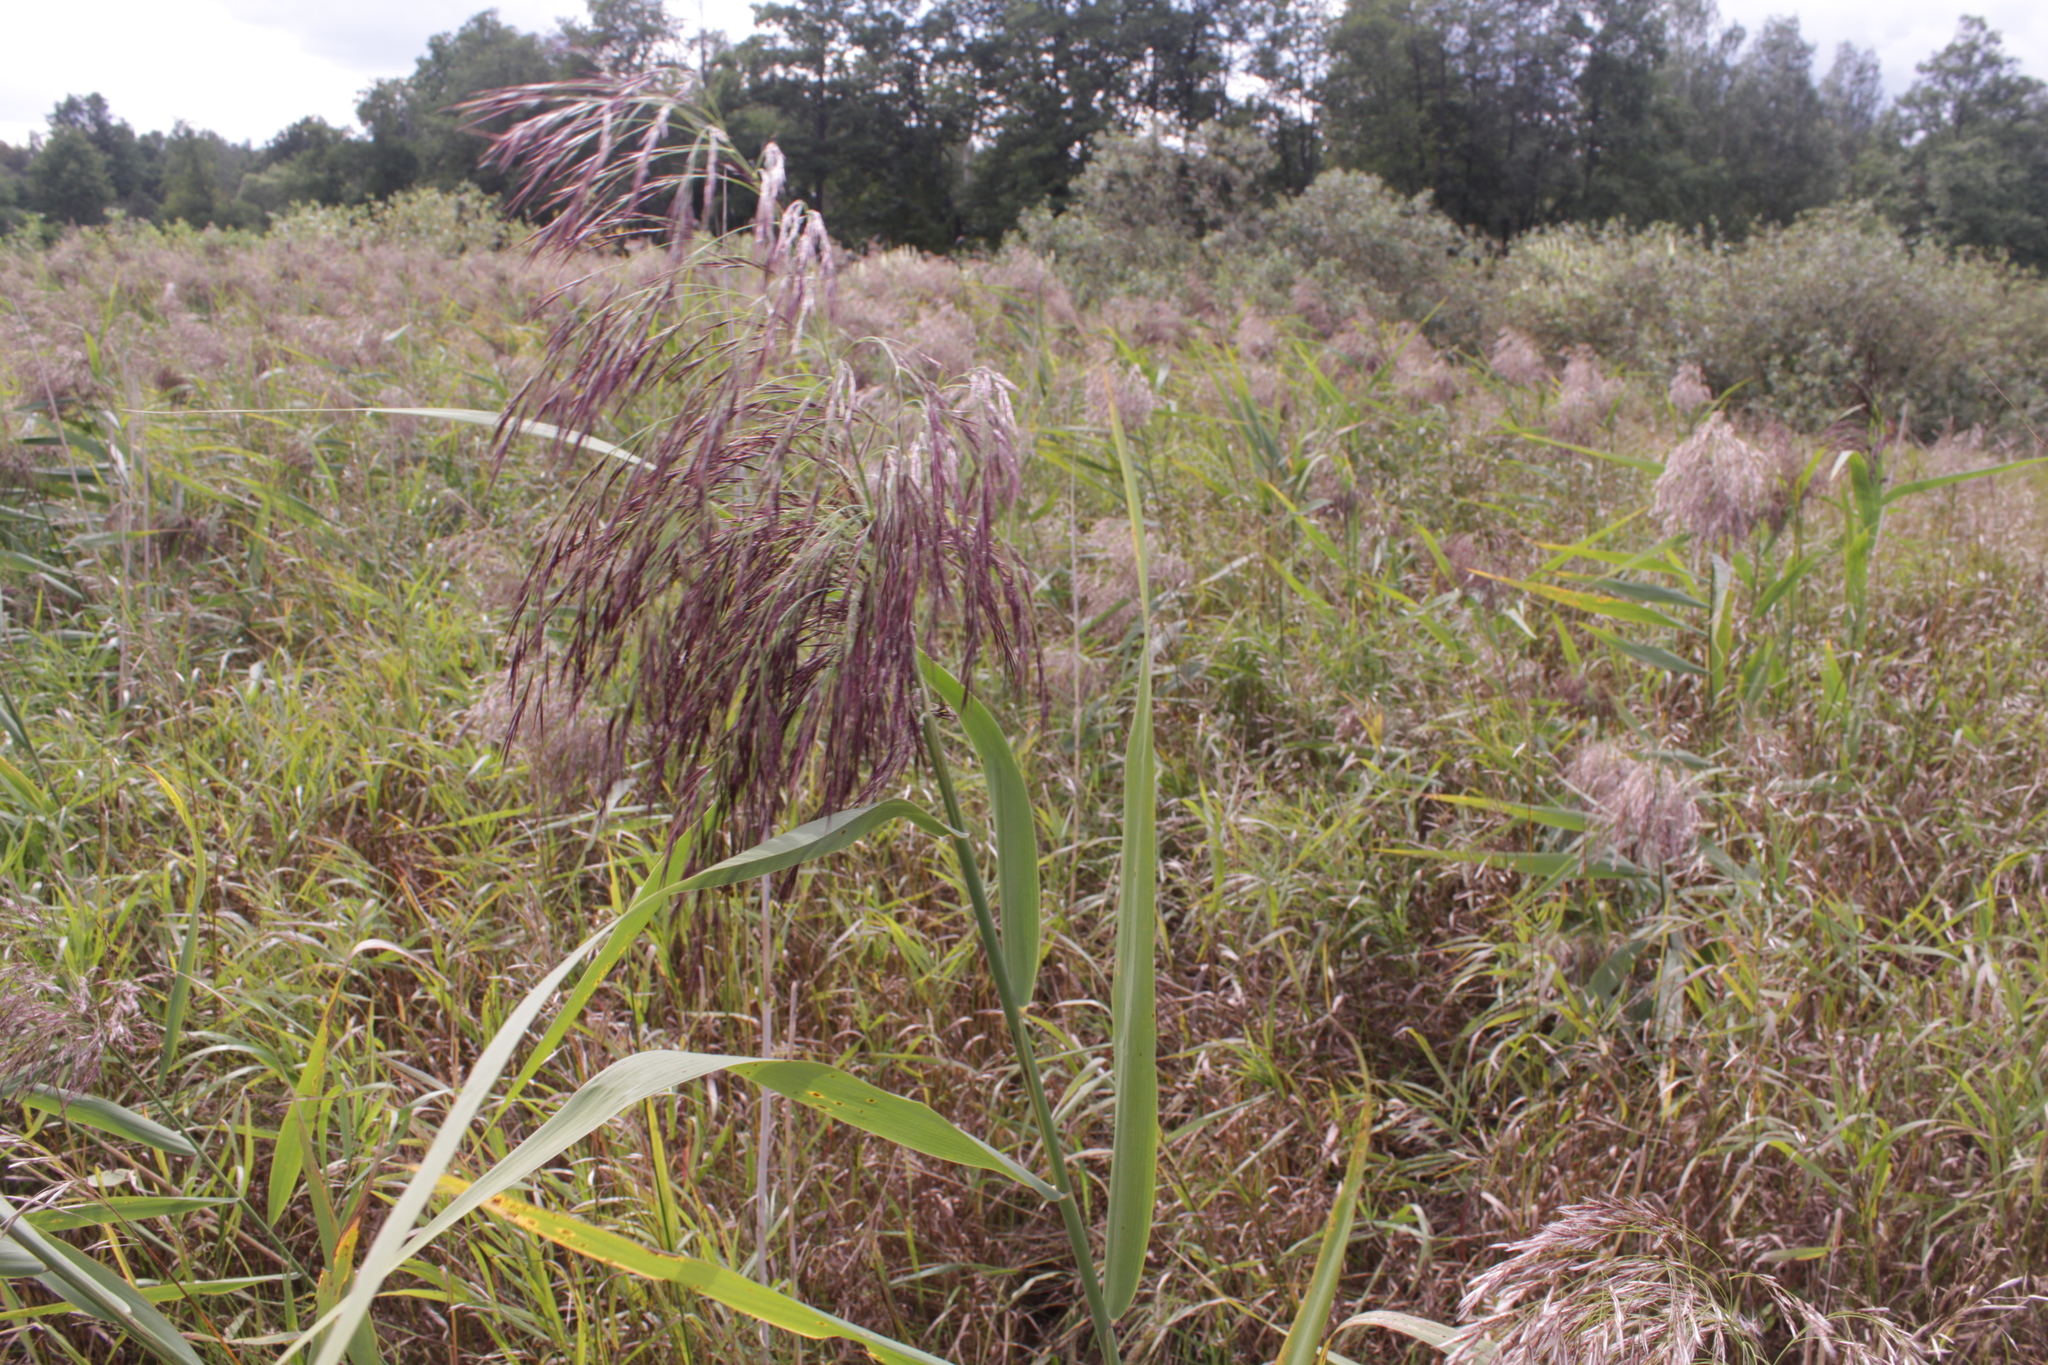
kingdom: Plantae
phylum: Tracheophyta
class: Liliopsida
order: Poales
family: Poaceae
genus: Phragmites
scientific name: Phragmites australis
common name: Common reed
